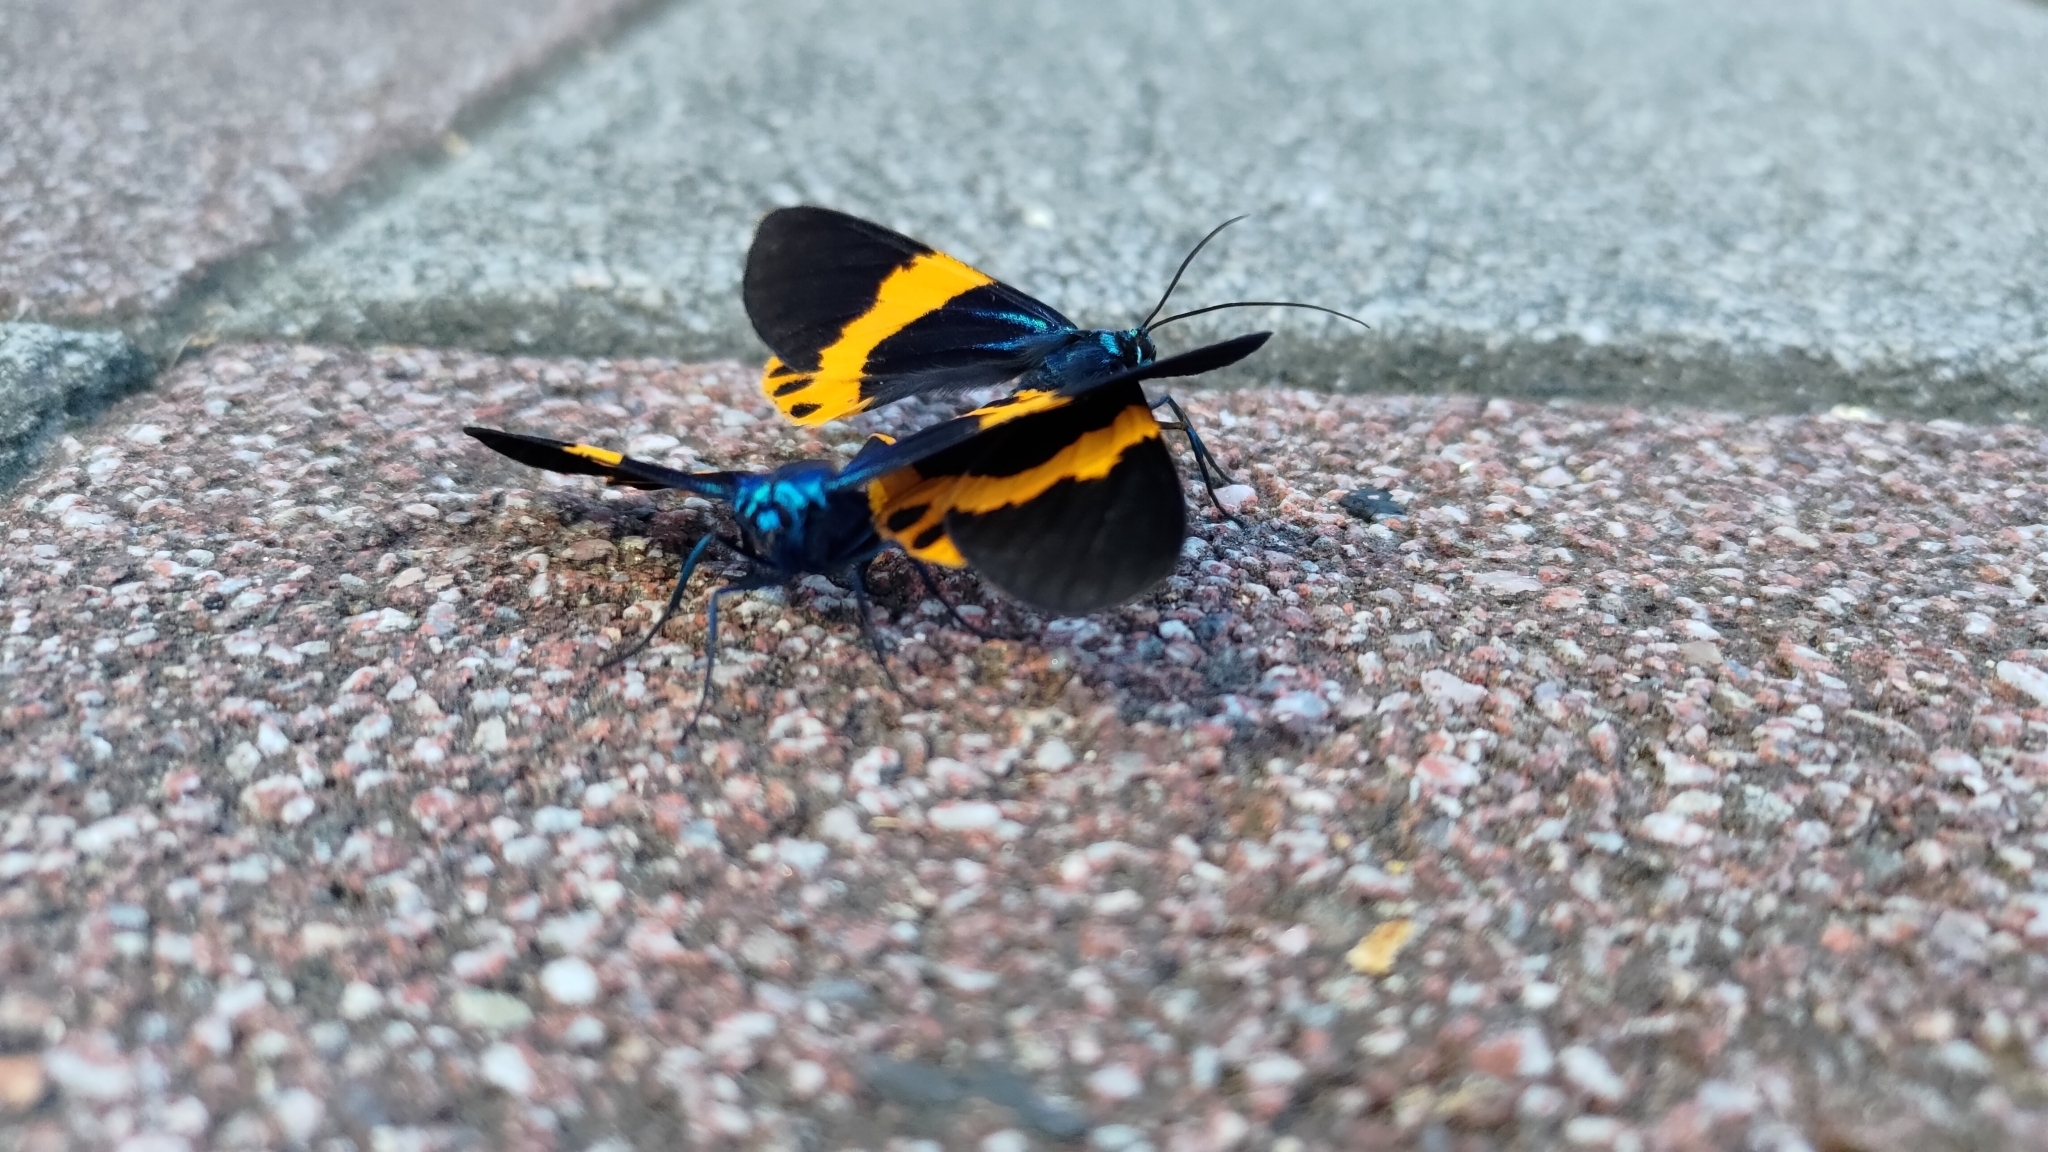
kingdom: Animalia
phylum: Arthropoda
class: Insecta
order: Lepidoptera
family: Geometridae
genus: Milionia
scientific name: Milionia basalis
